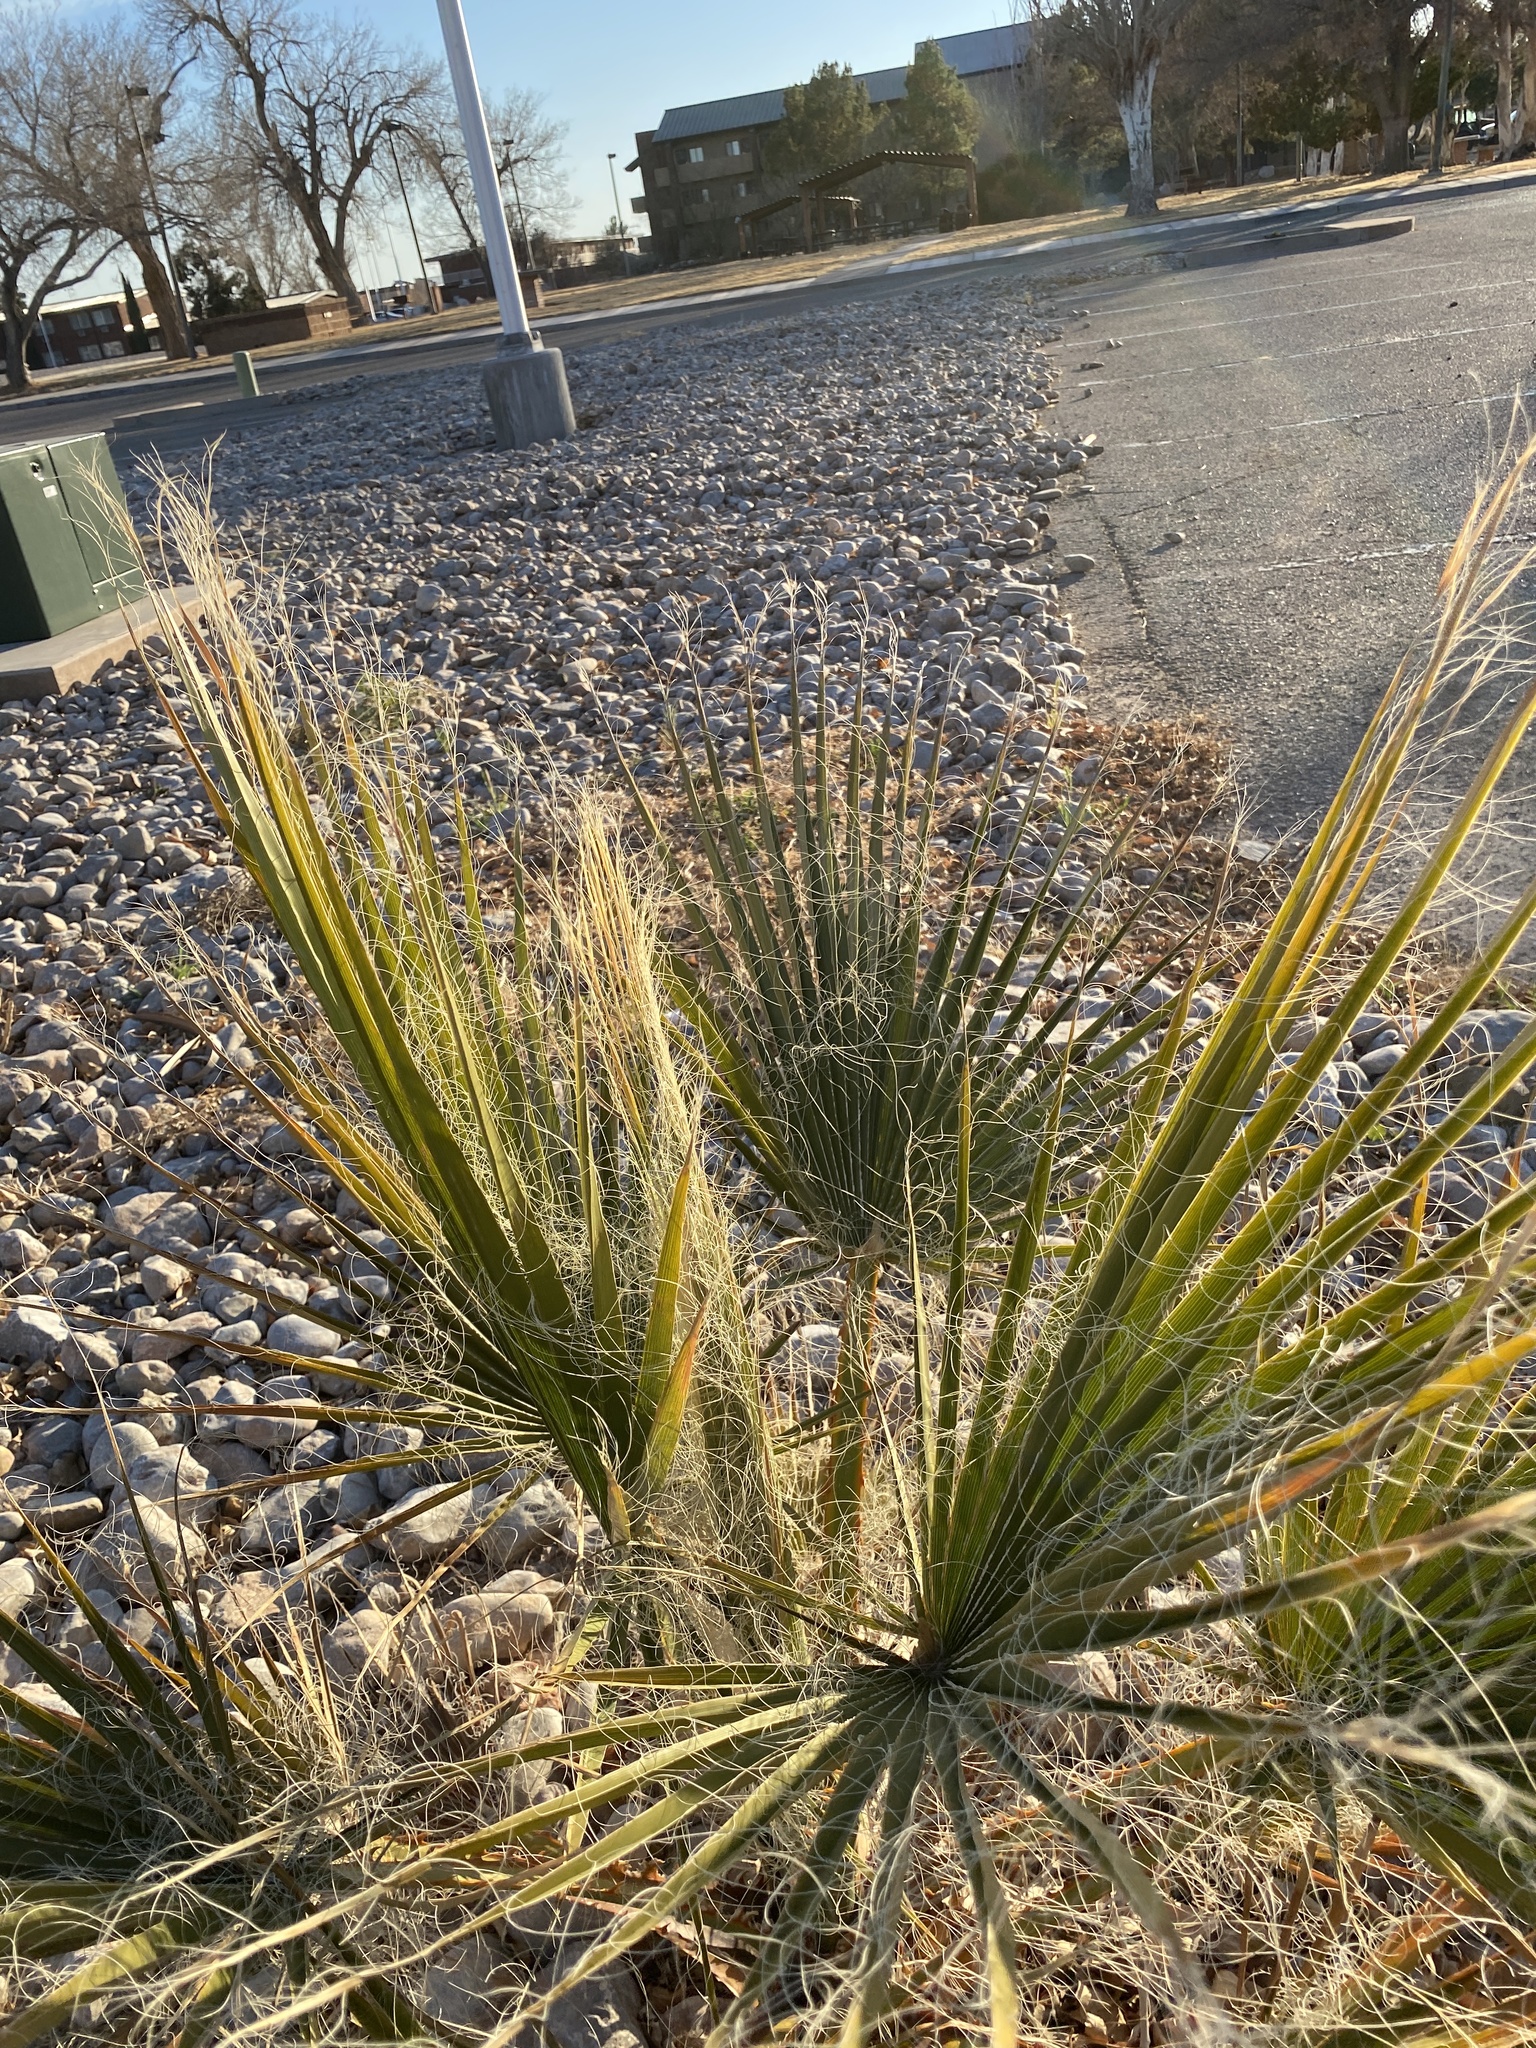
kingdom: Plantae
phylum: Tracheophyta
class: Liliopsida
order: Arecales
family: Arecaceae
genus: Washingtonia
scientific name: Washingtonia filibusta
